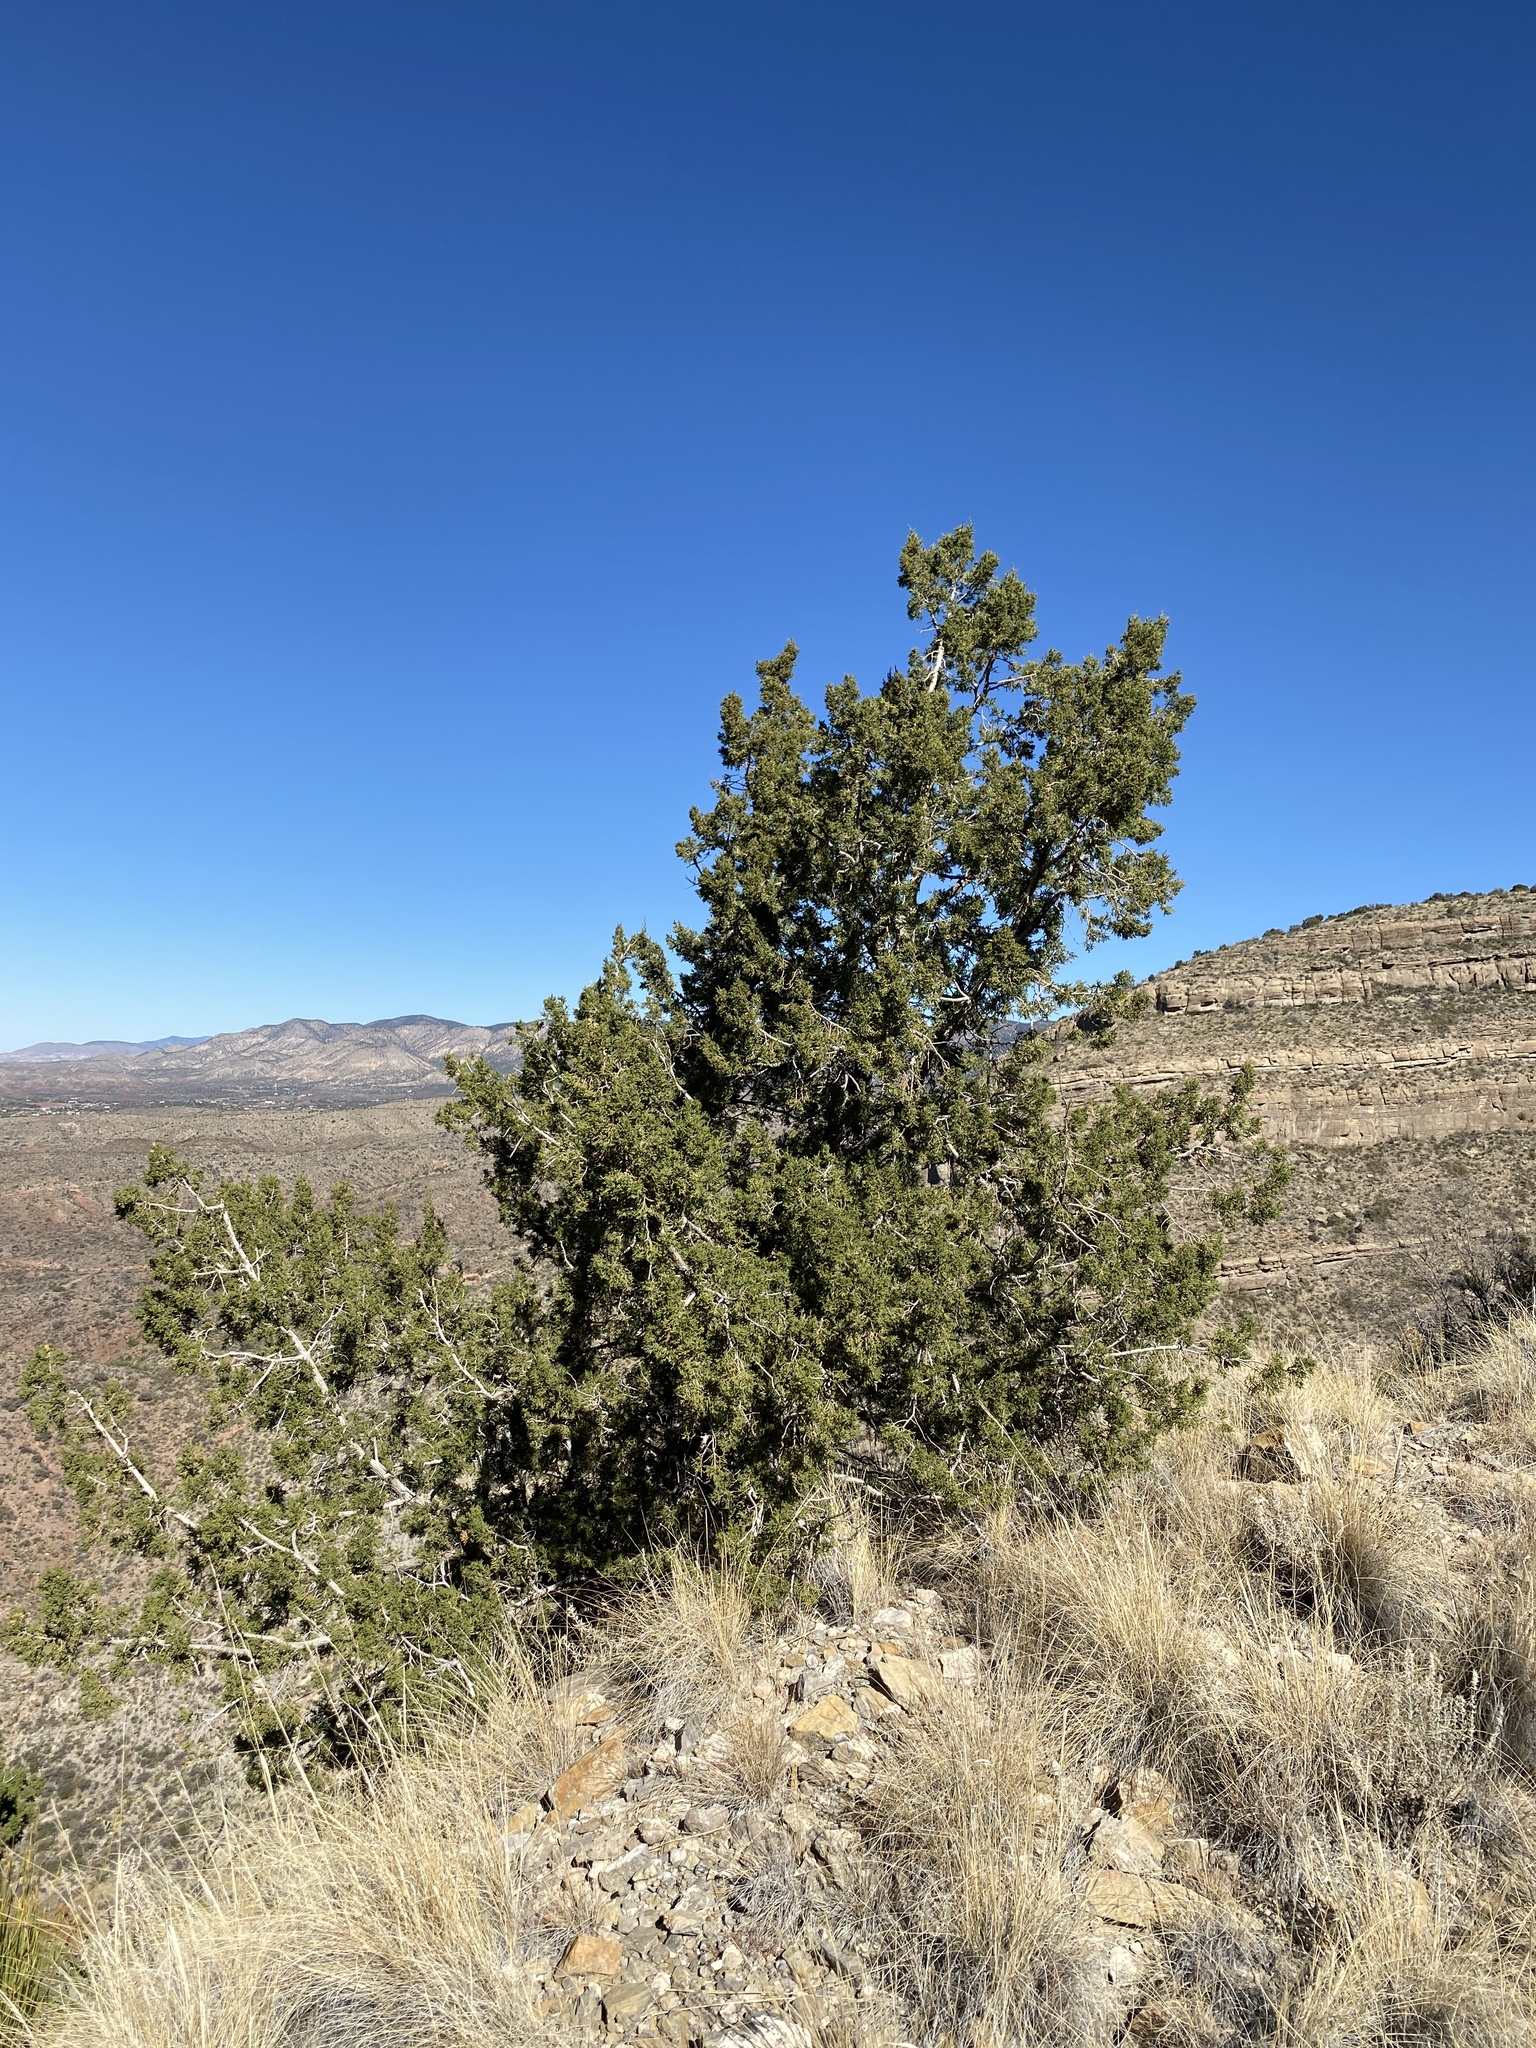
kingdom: Plantae
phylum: Tracheophyta
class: Pinopsida
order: Pinales
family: Cupressaceae
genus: Juniperus
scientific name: Juniperus monosperma
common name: One-seed juniper
